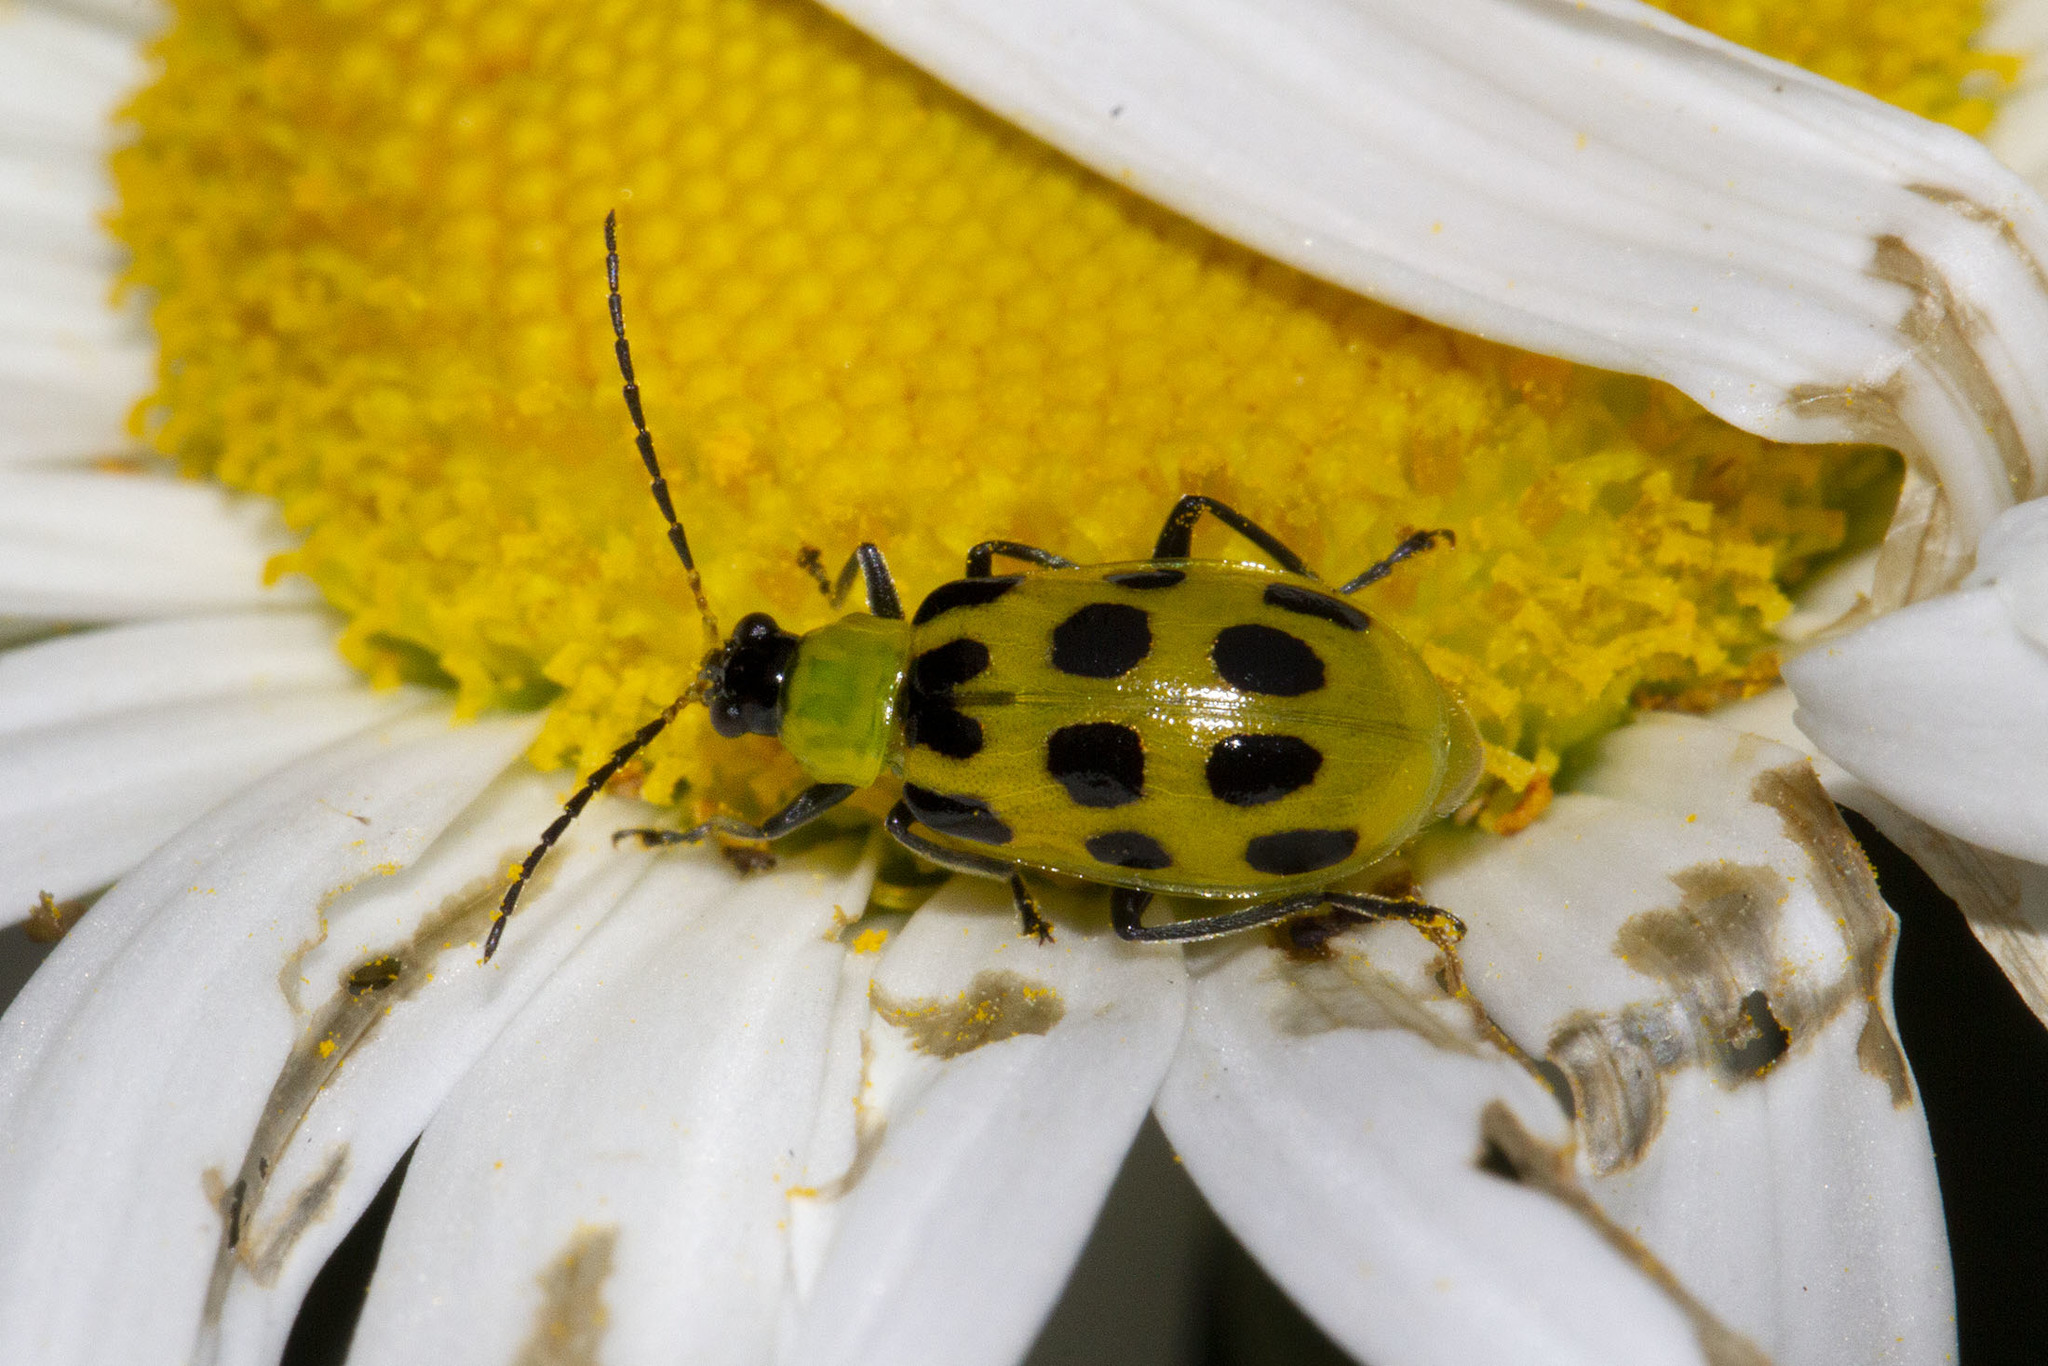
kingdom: Animalia
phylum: Arthropoda
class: Insecta
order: Coleoptera
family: Chrysomelidae
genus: Diabrotica
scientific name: Diabrotica undecimpunctata
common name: Spotted cucumber beetle
